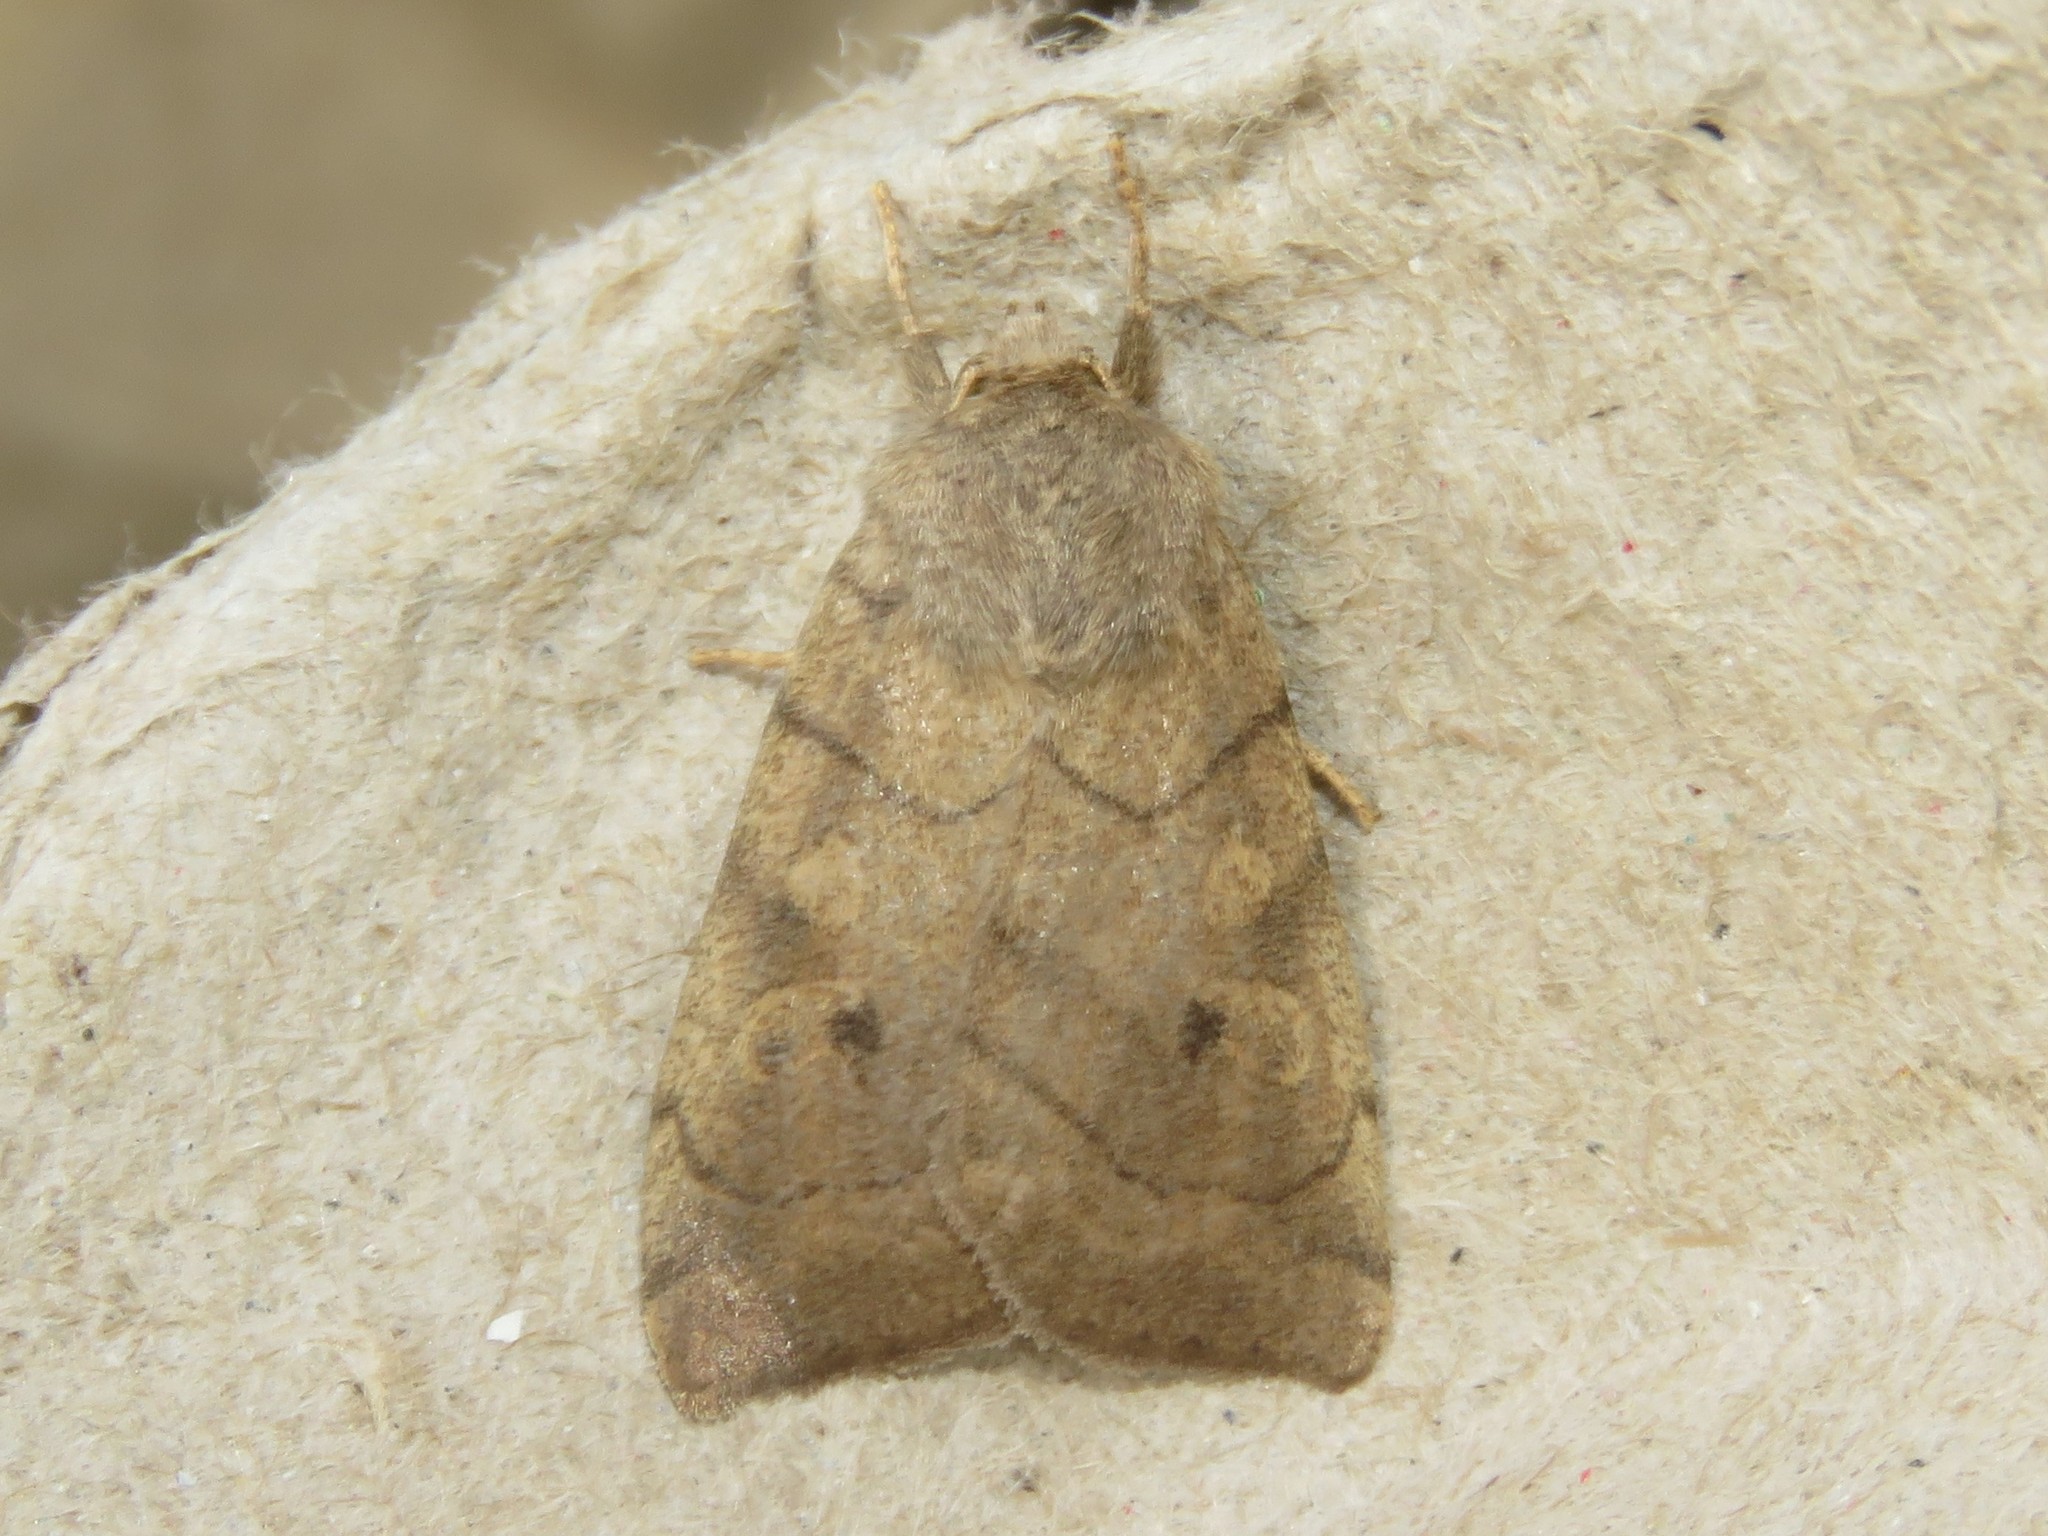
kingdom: Animalia
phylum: Arthropoda
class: Insecta
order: Lepidoptera
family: Noctuidae
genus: Enargia
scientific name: Enargia infumata
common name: Smoked sallow
